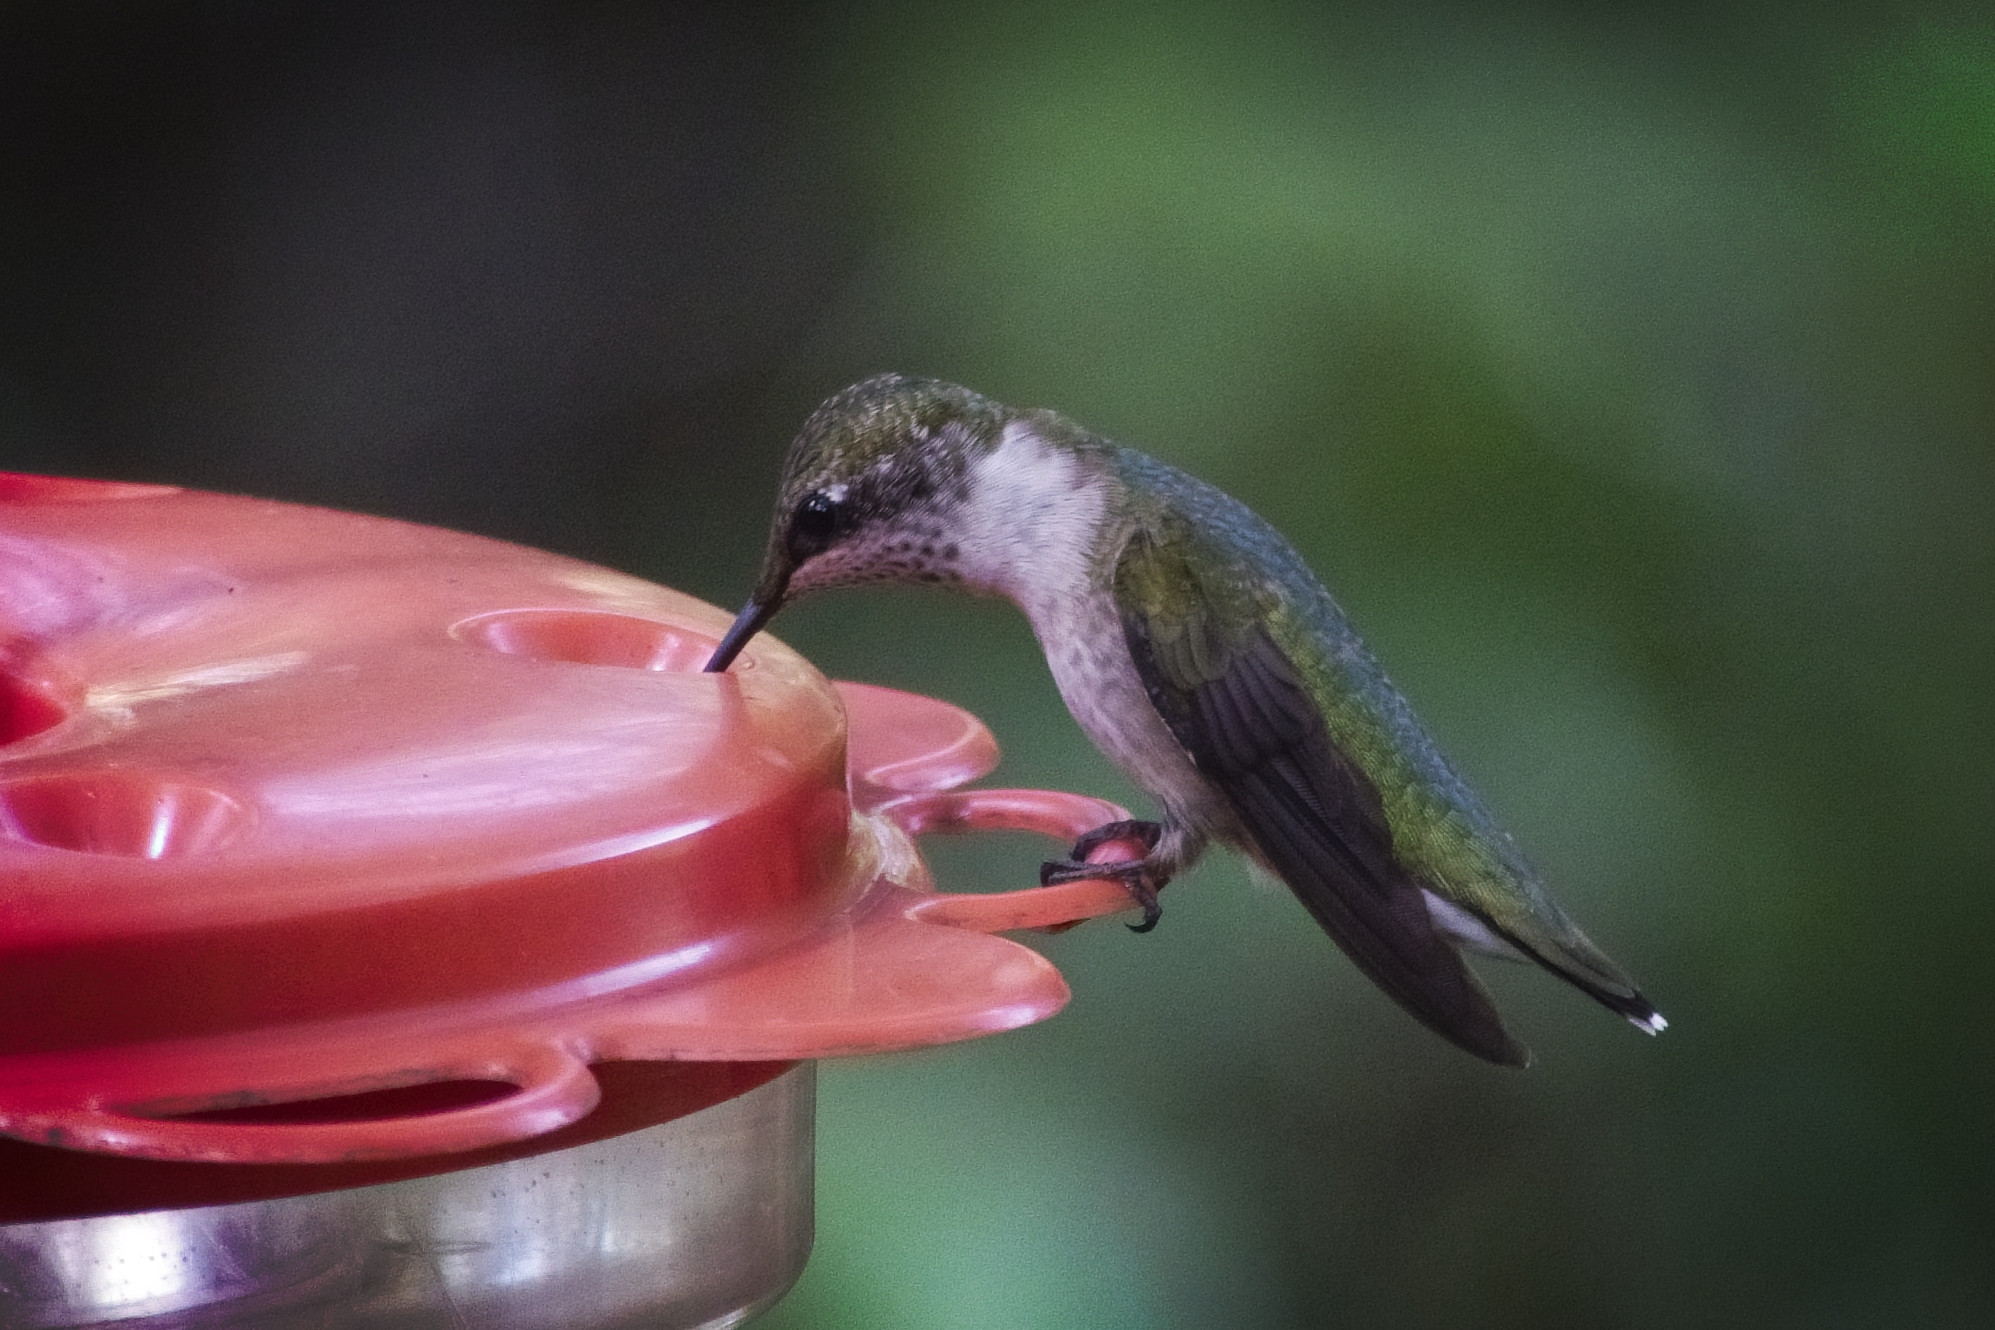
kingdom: Animalia
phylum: Chordata
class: Aves
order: Apodiformes
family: Trochilidae
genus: Archilochus
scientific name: Archilochus colubris
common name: Ruby-throated hummingbird
